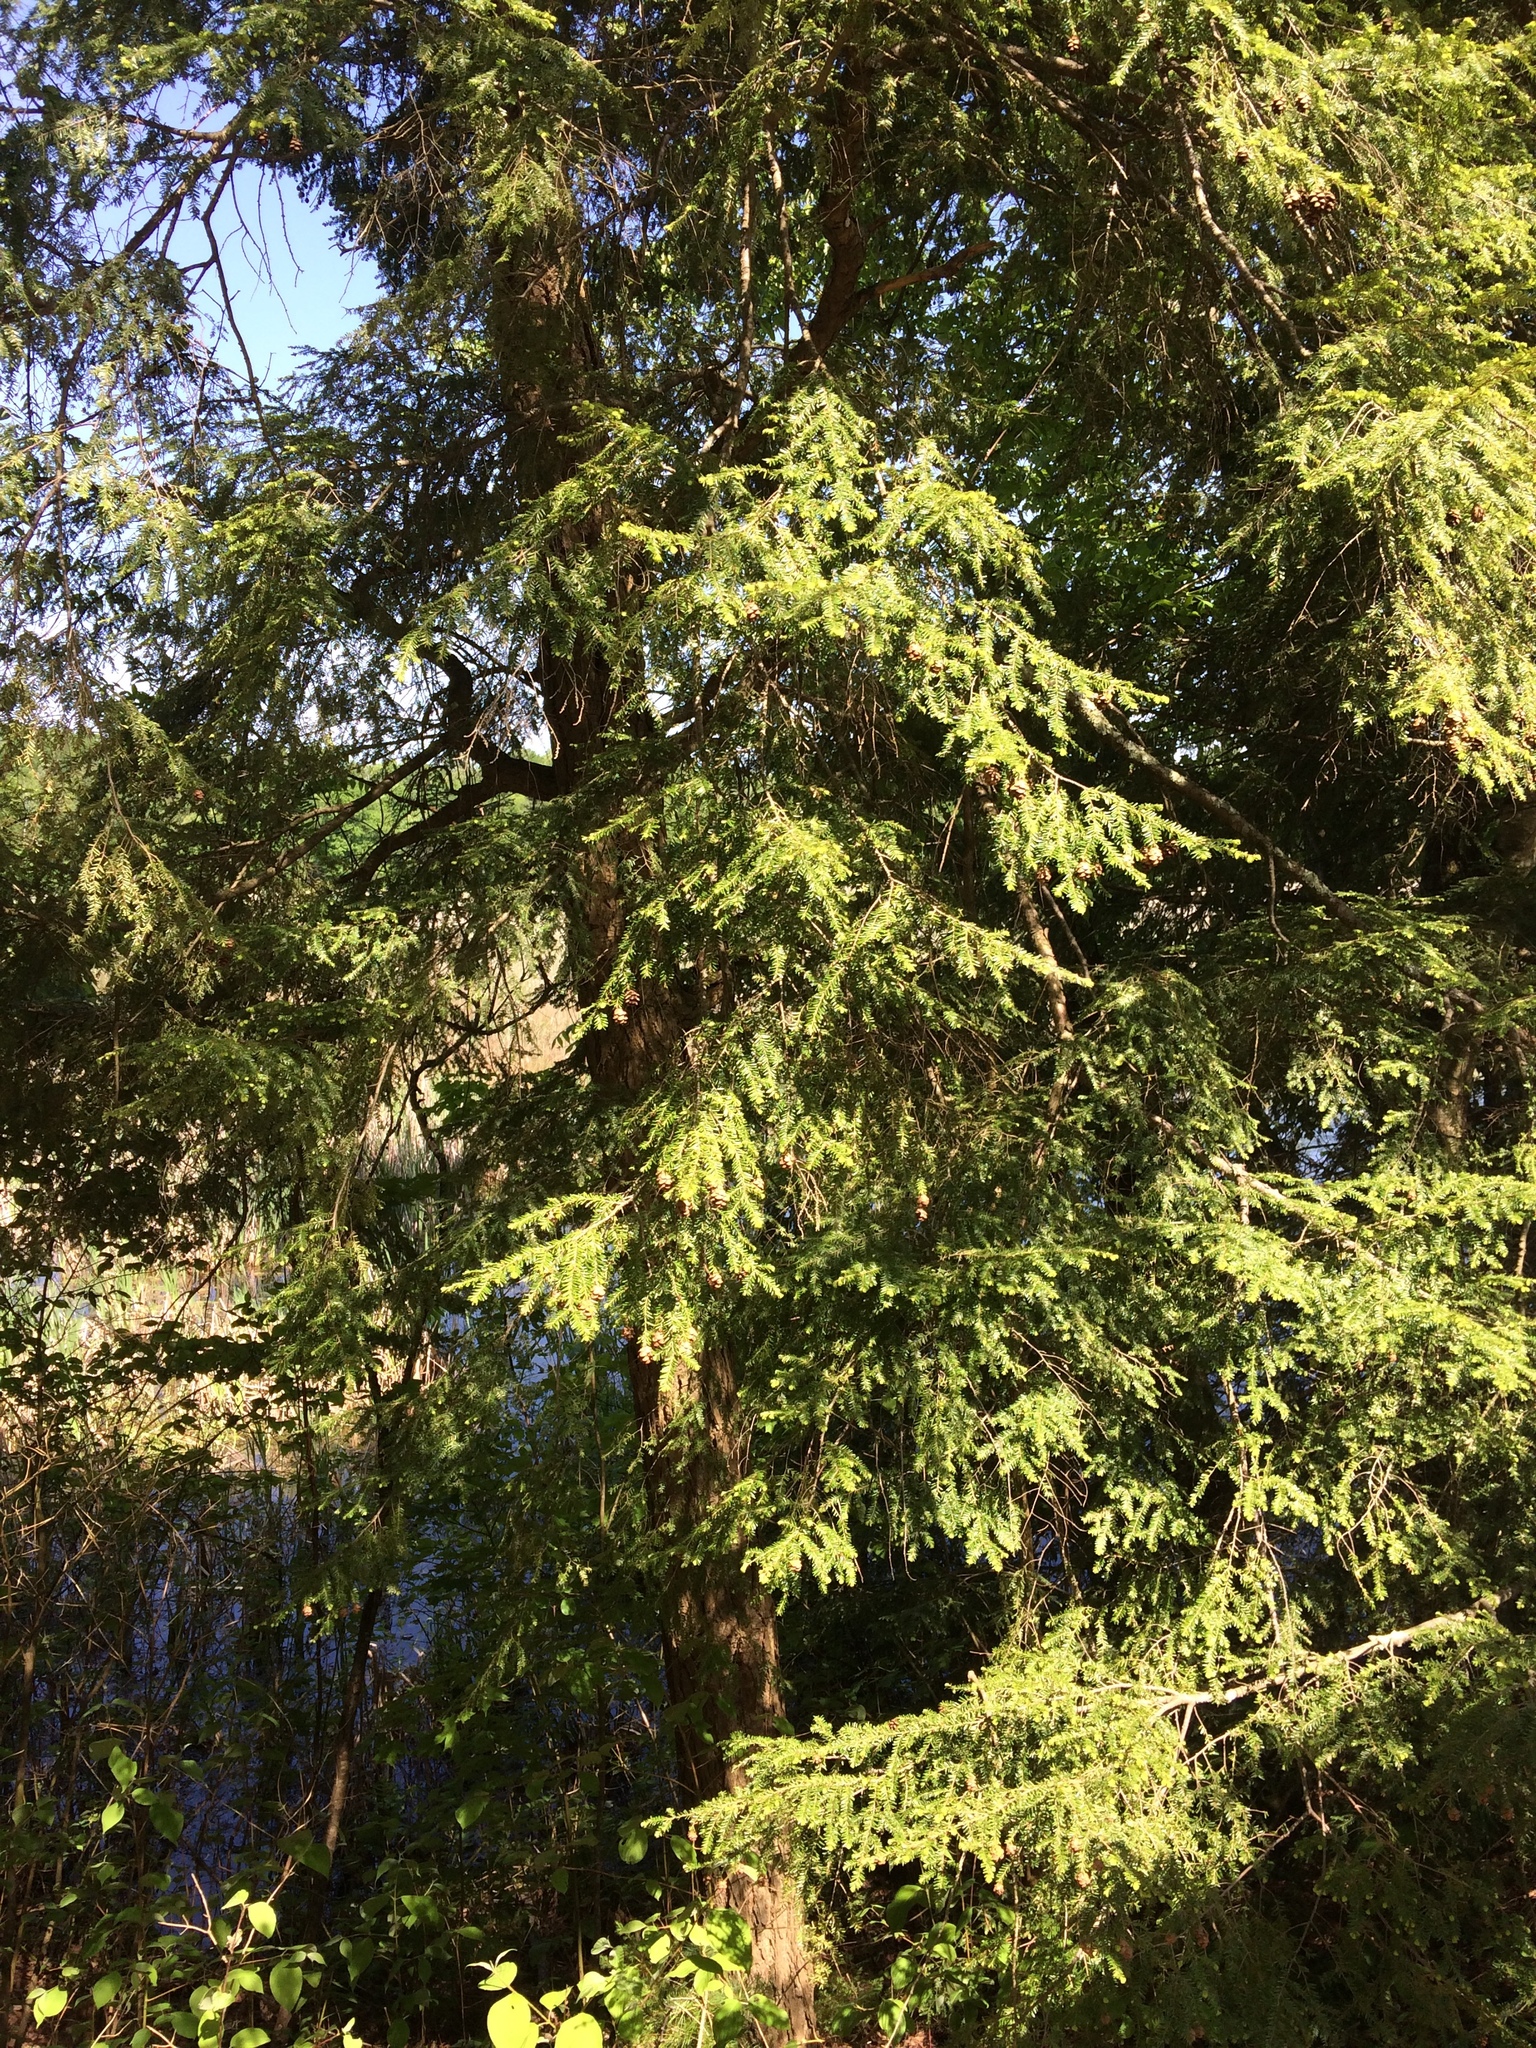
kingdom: Plantae
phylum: Tracheophyta
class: Pinopsida
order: Pinales
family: Pinaceae
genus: Tsuga
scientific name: Tsuga canadensis
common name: Eastern hemlock
